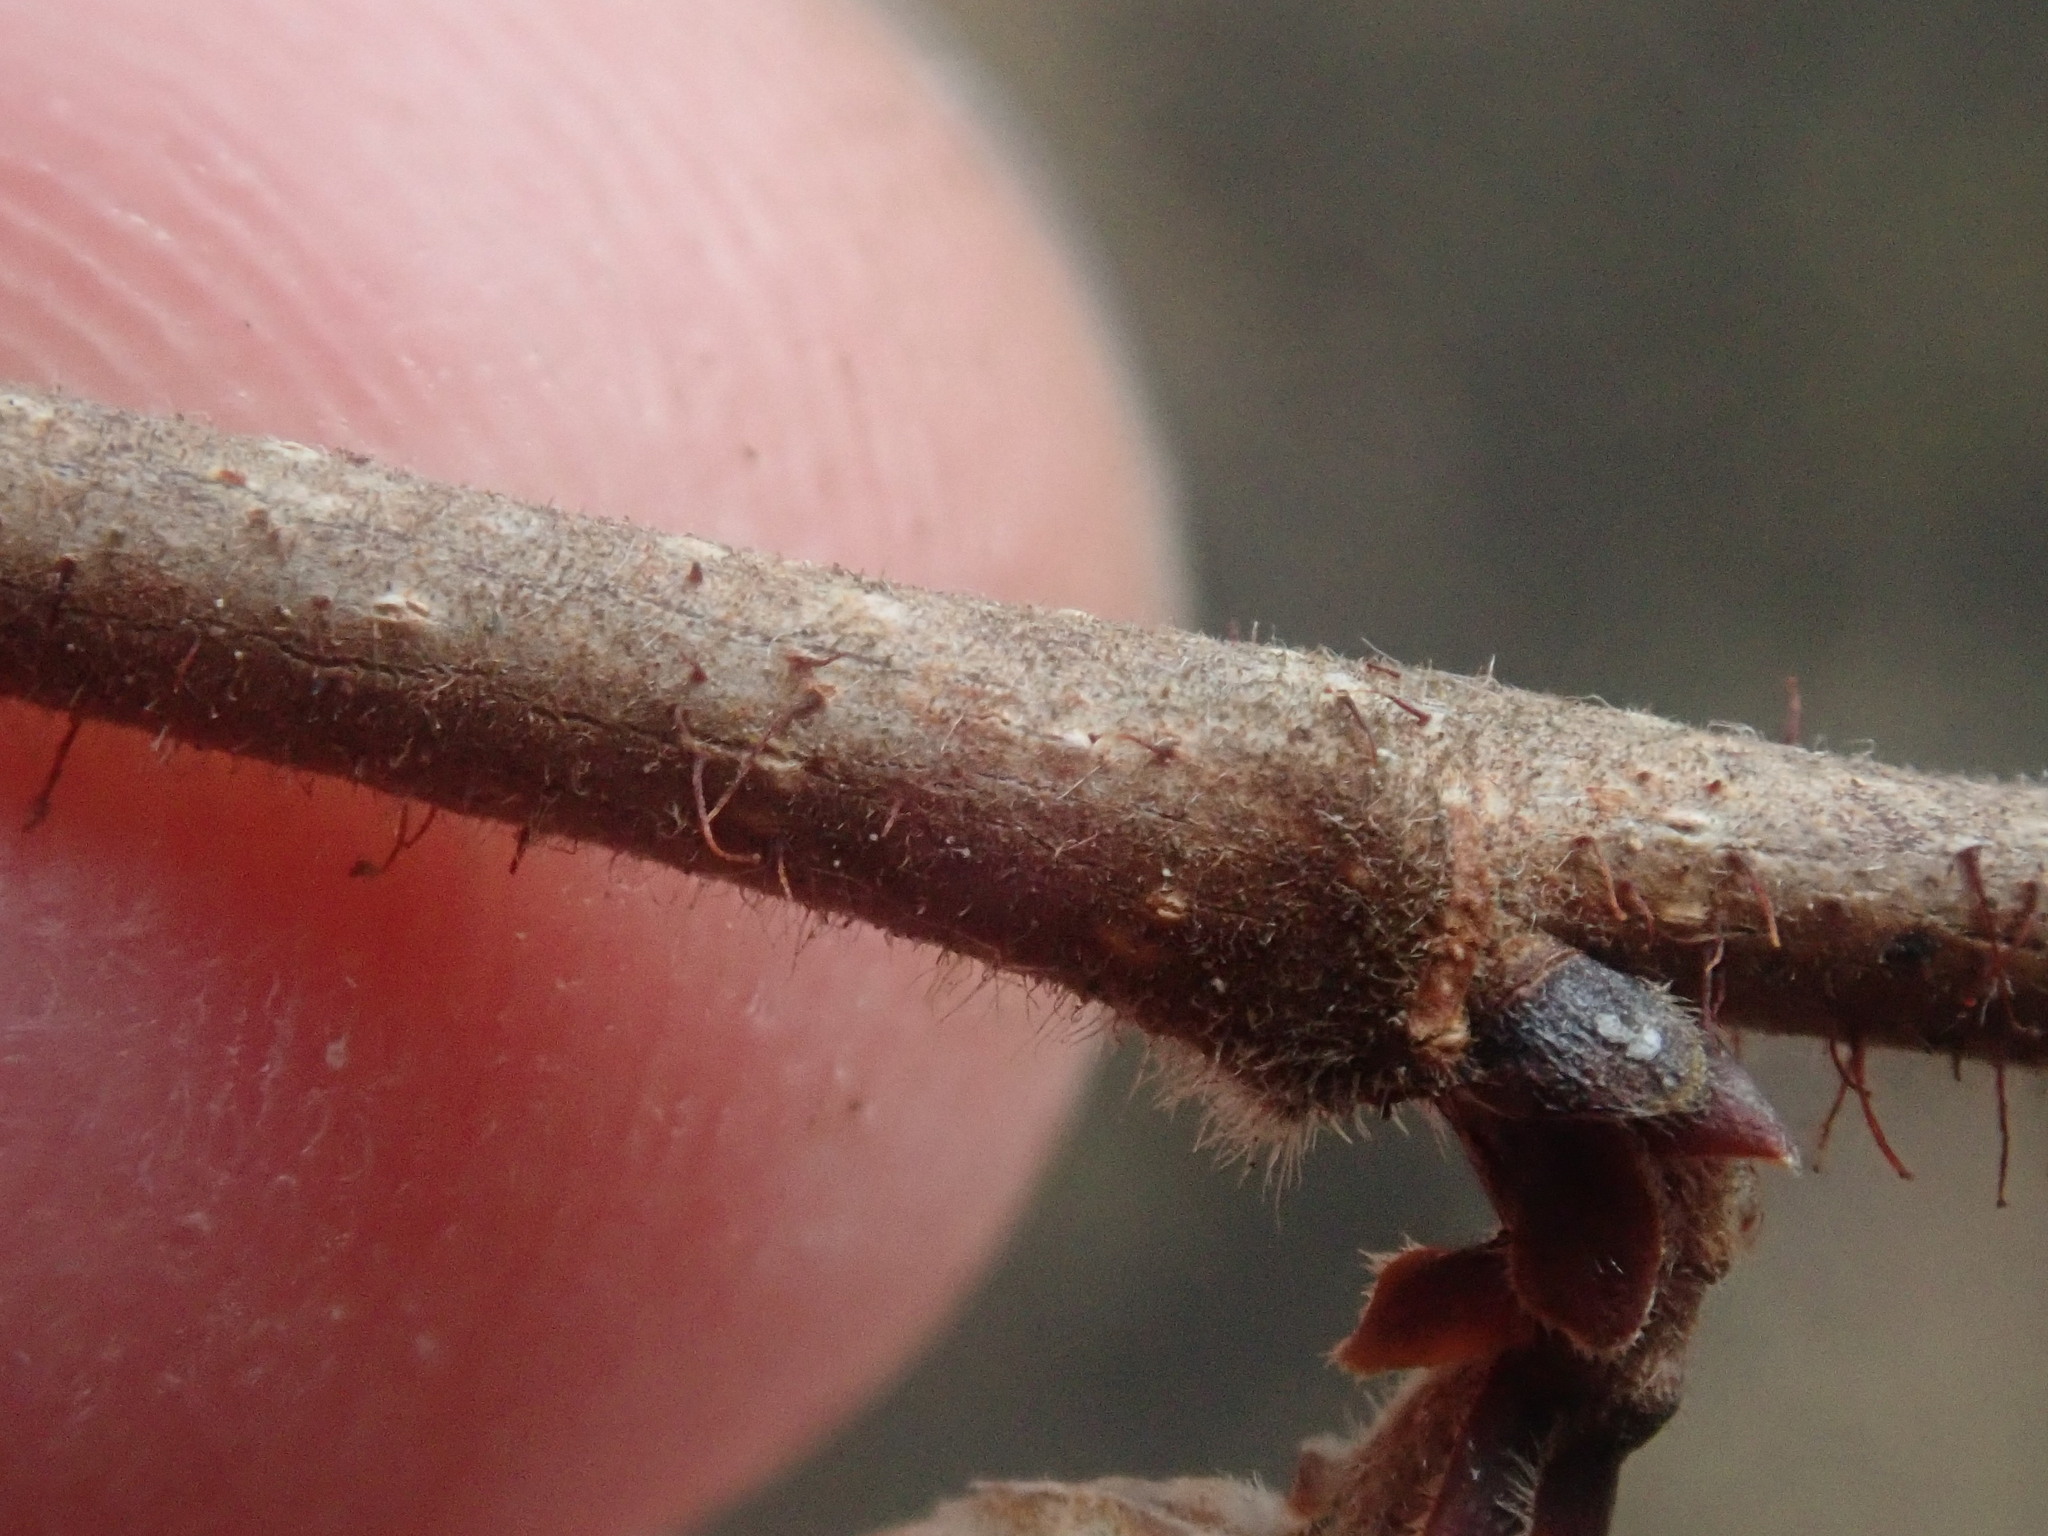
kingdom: Plantae
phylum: Tracheophyta
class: Magnoliopsida
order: Fagales
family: Betulaceae
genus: Corylus
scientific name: Corylus americana
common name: American hazel
